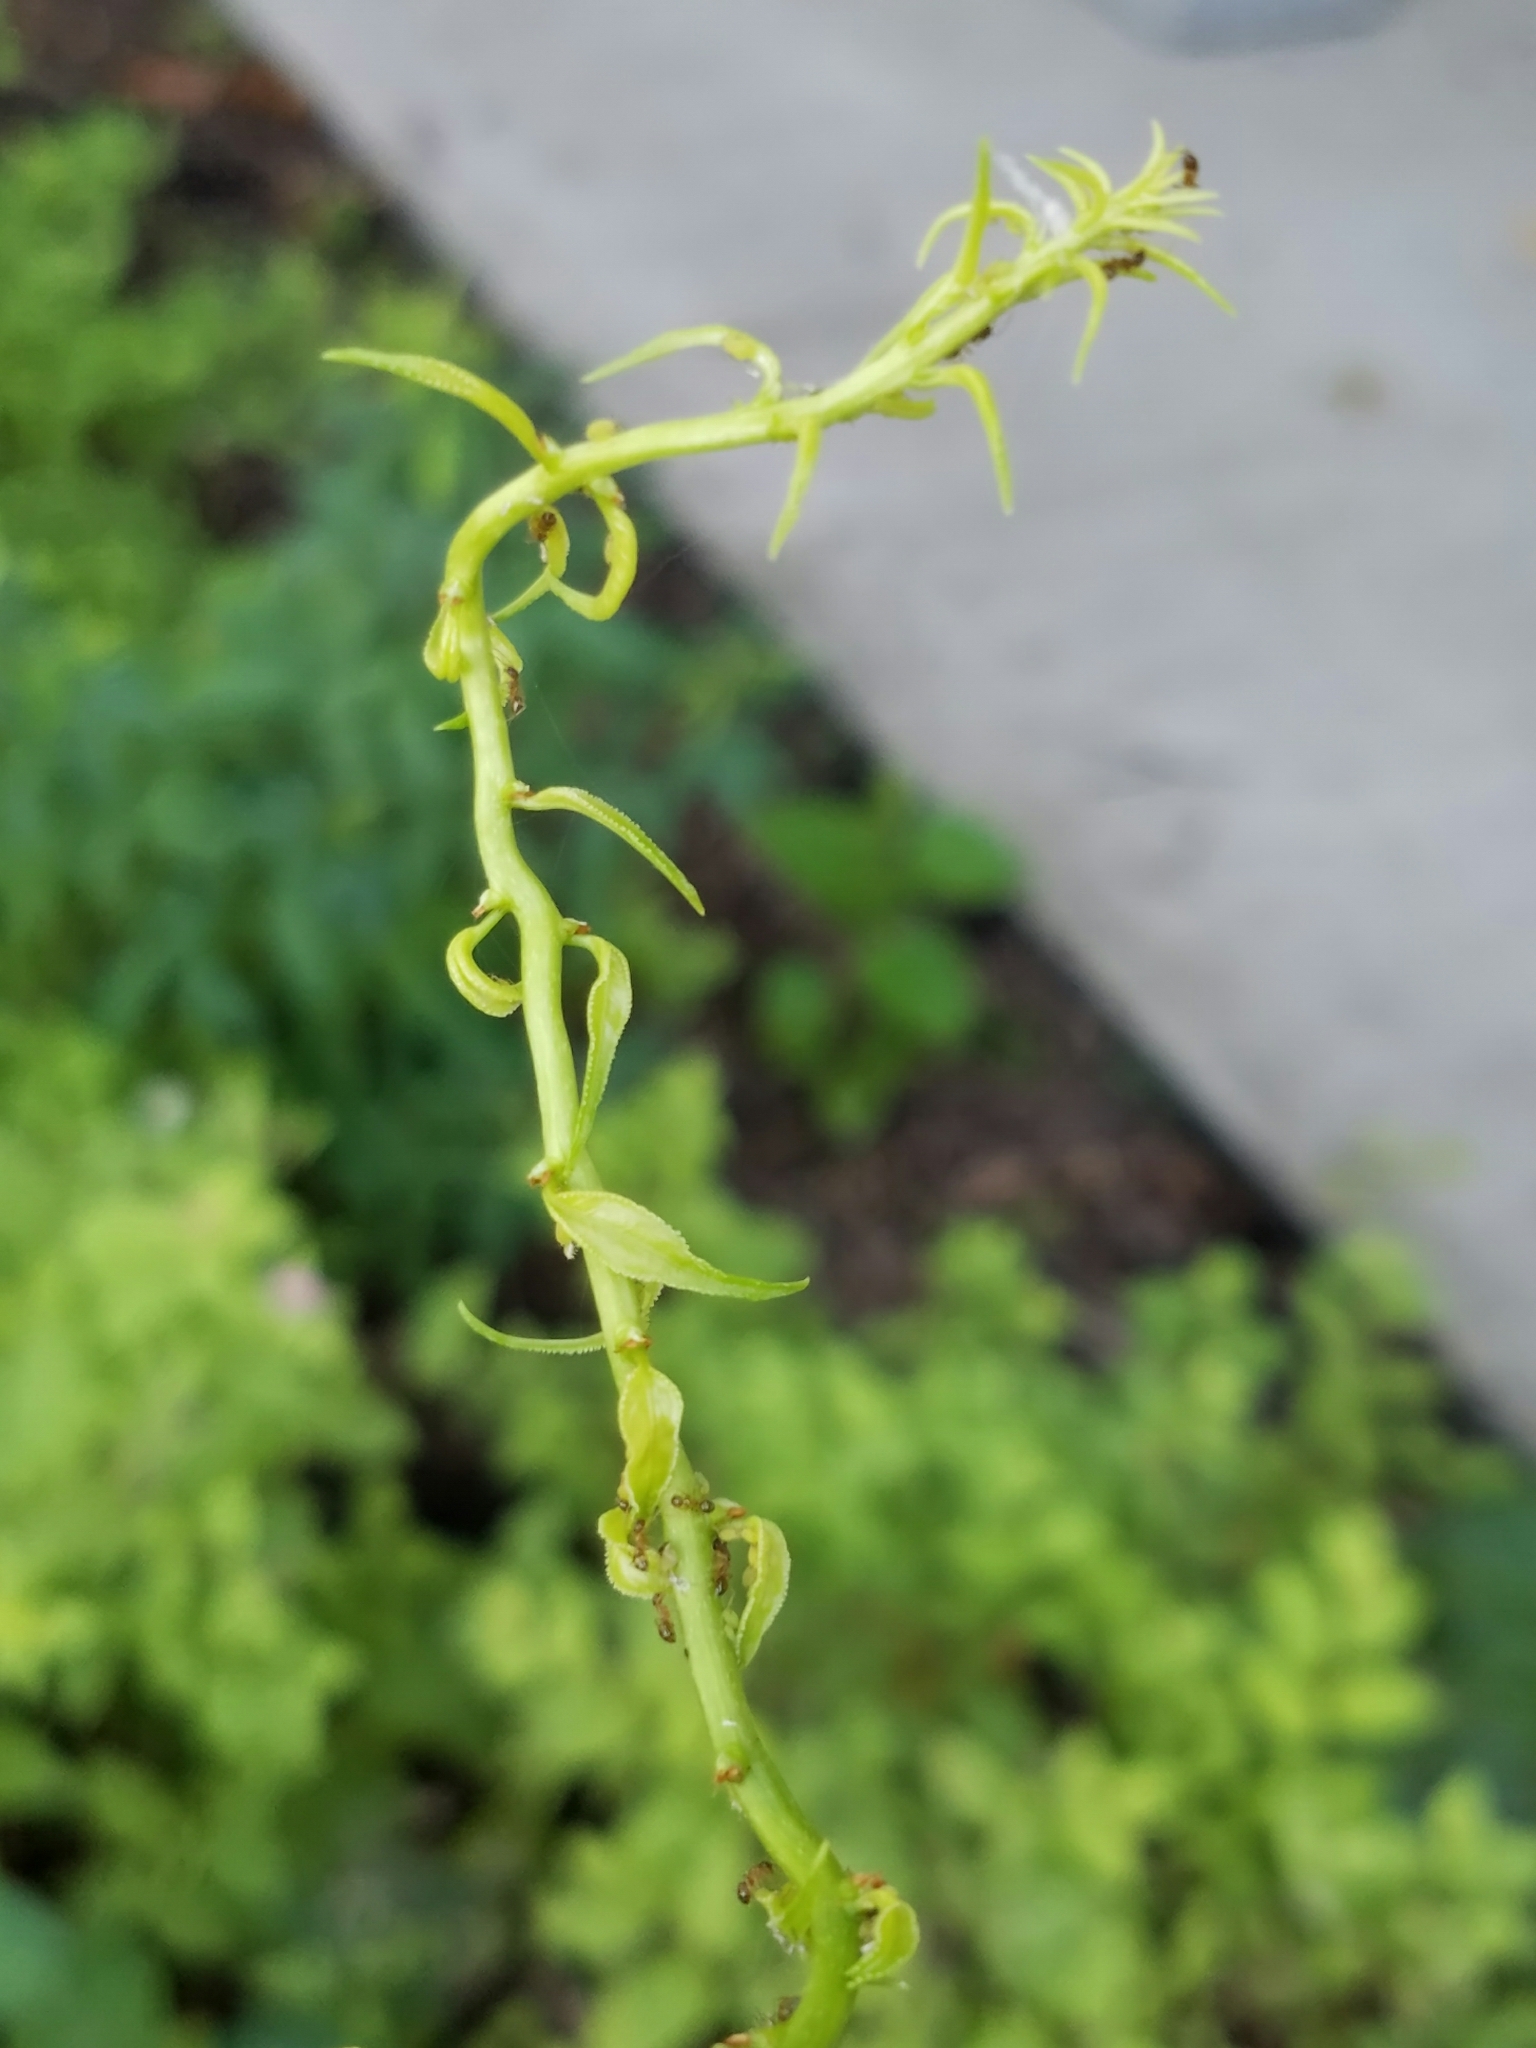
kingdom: Plantae
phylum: Tracheophyta
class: Magnoliopsida
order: Celastrales
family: Celastraceae
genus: Celastrus
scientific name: Celastrus orbiculatus
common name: Oriental bittersweet
